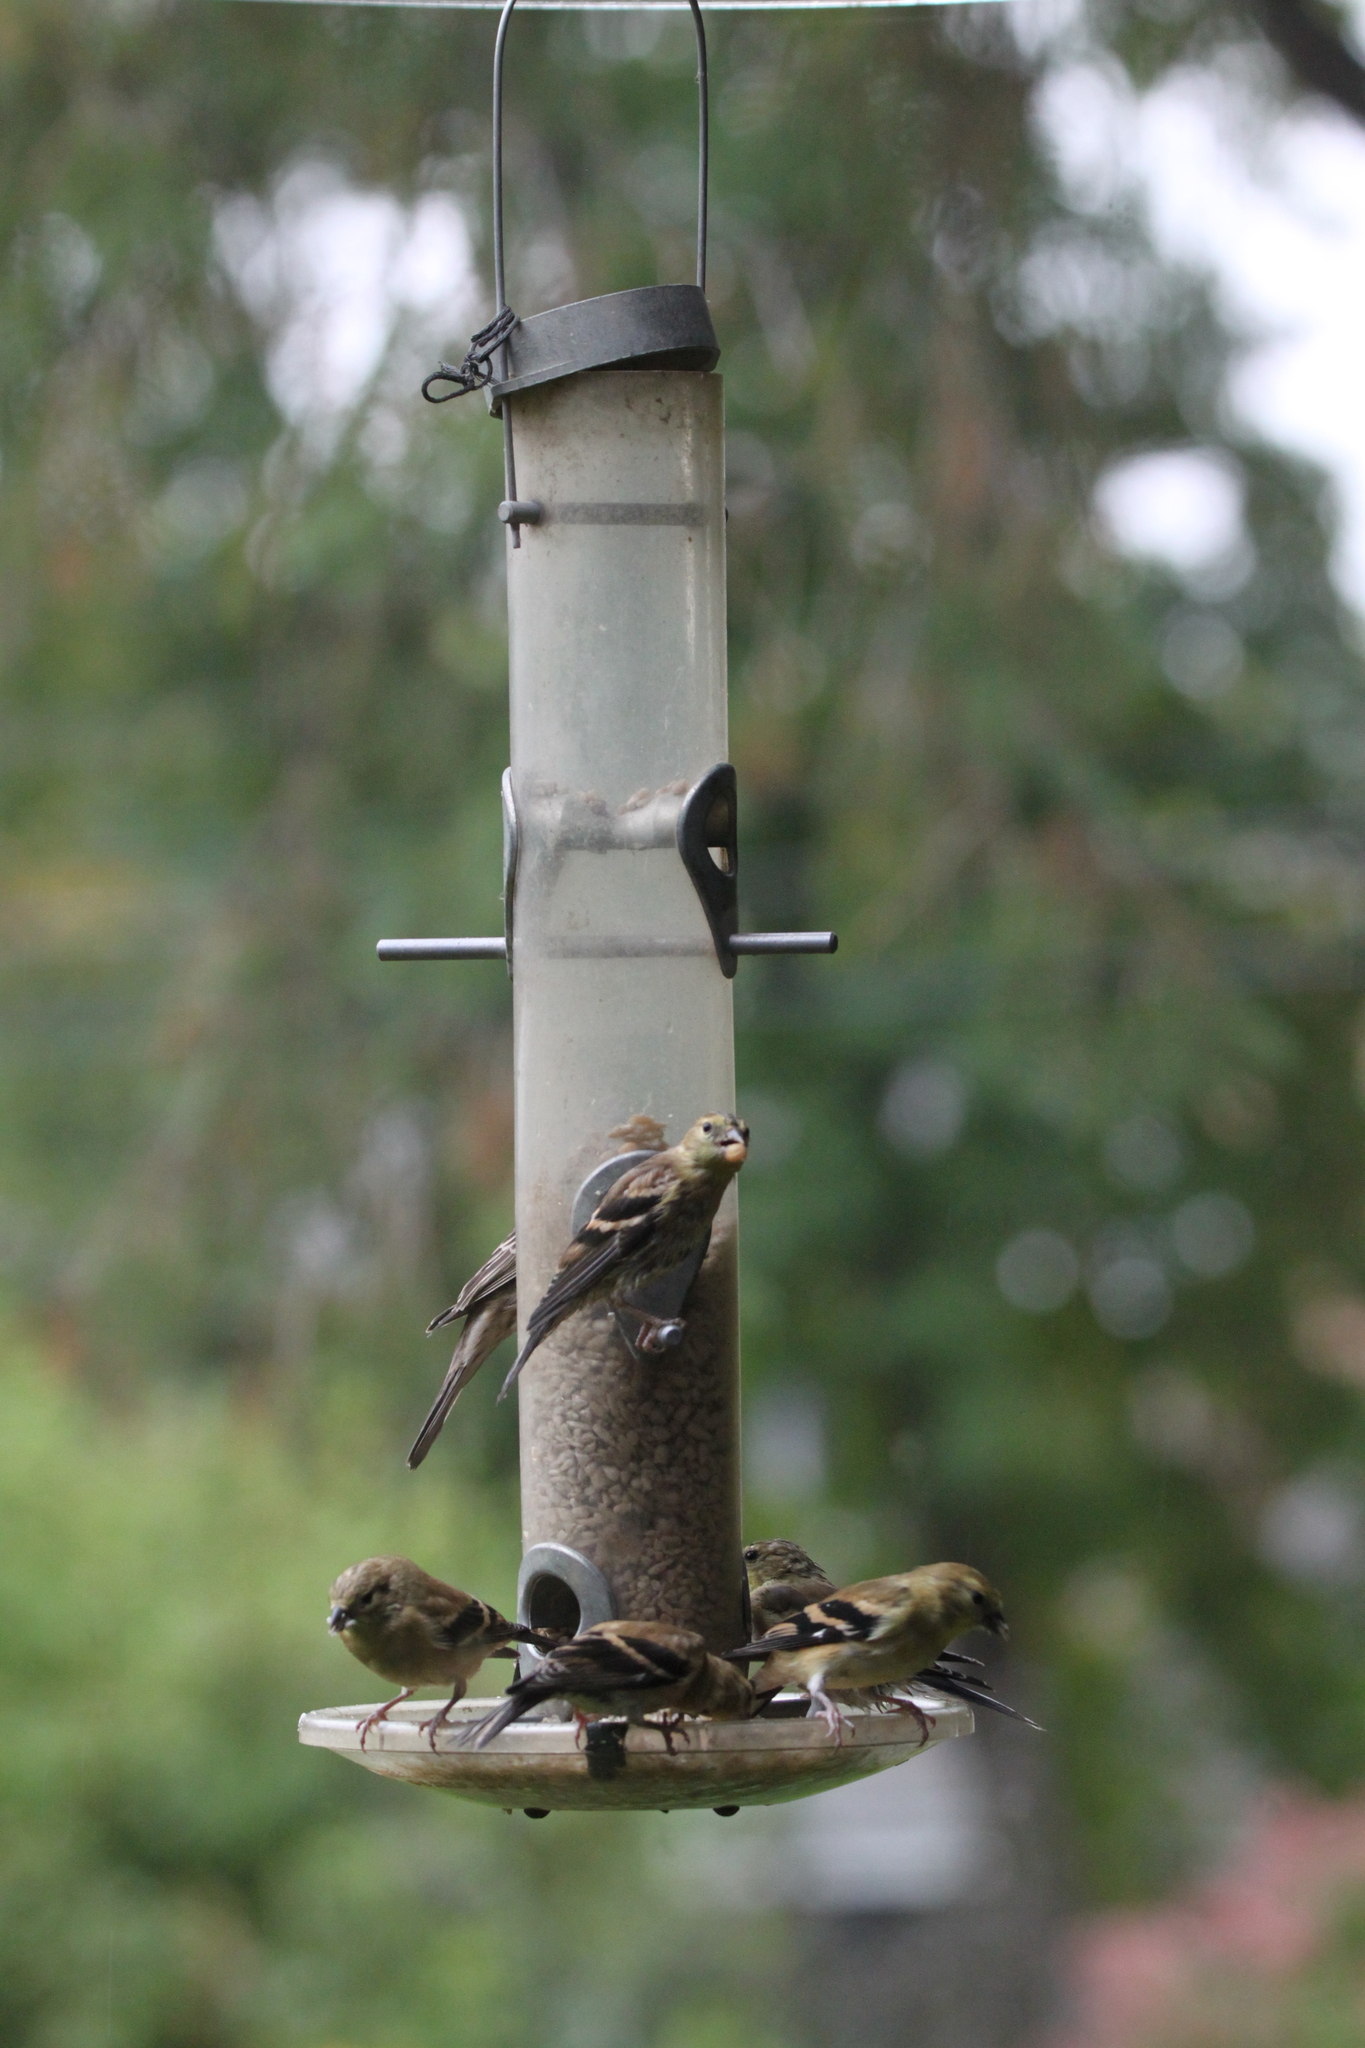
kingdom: Animalia
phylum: Chordata
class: Aves
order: Passeriformes
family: Fringillidae
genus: Spinus
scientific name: Spinus tristis
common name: American goldfinch
